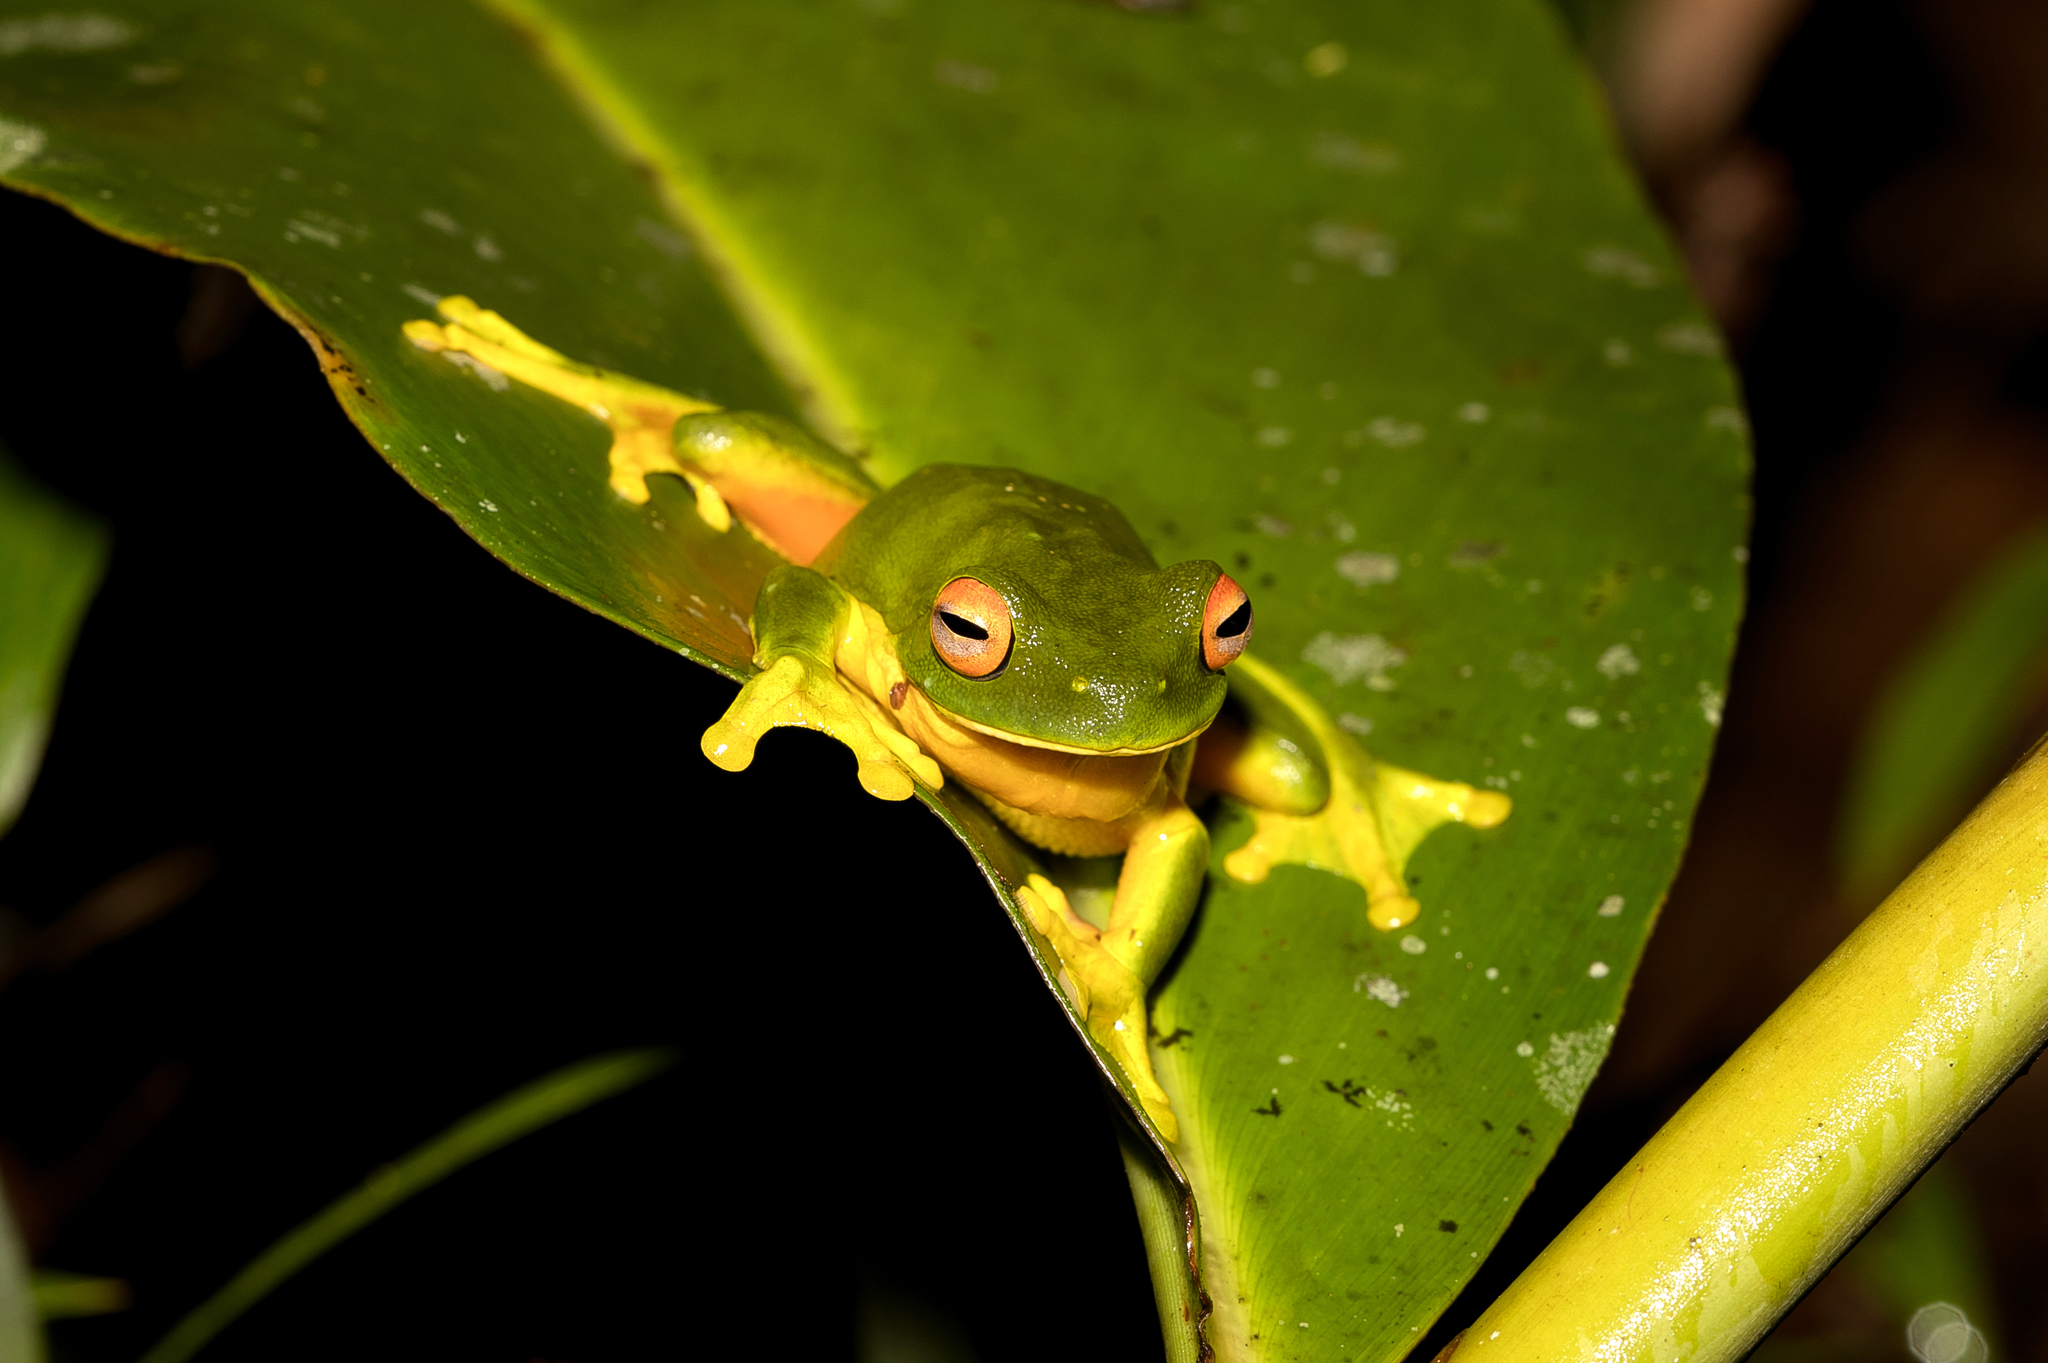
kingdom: Animalia
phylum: Chordata
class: Amphibia
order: Anura
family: Pelodryadidae
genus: Ranoidea
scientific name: Ranoidea xanthomera
